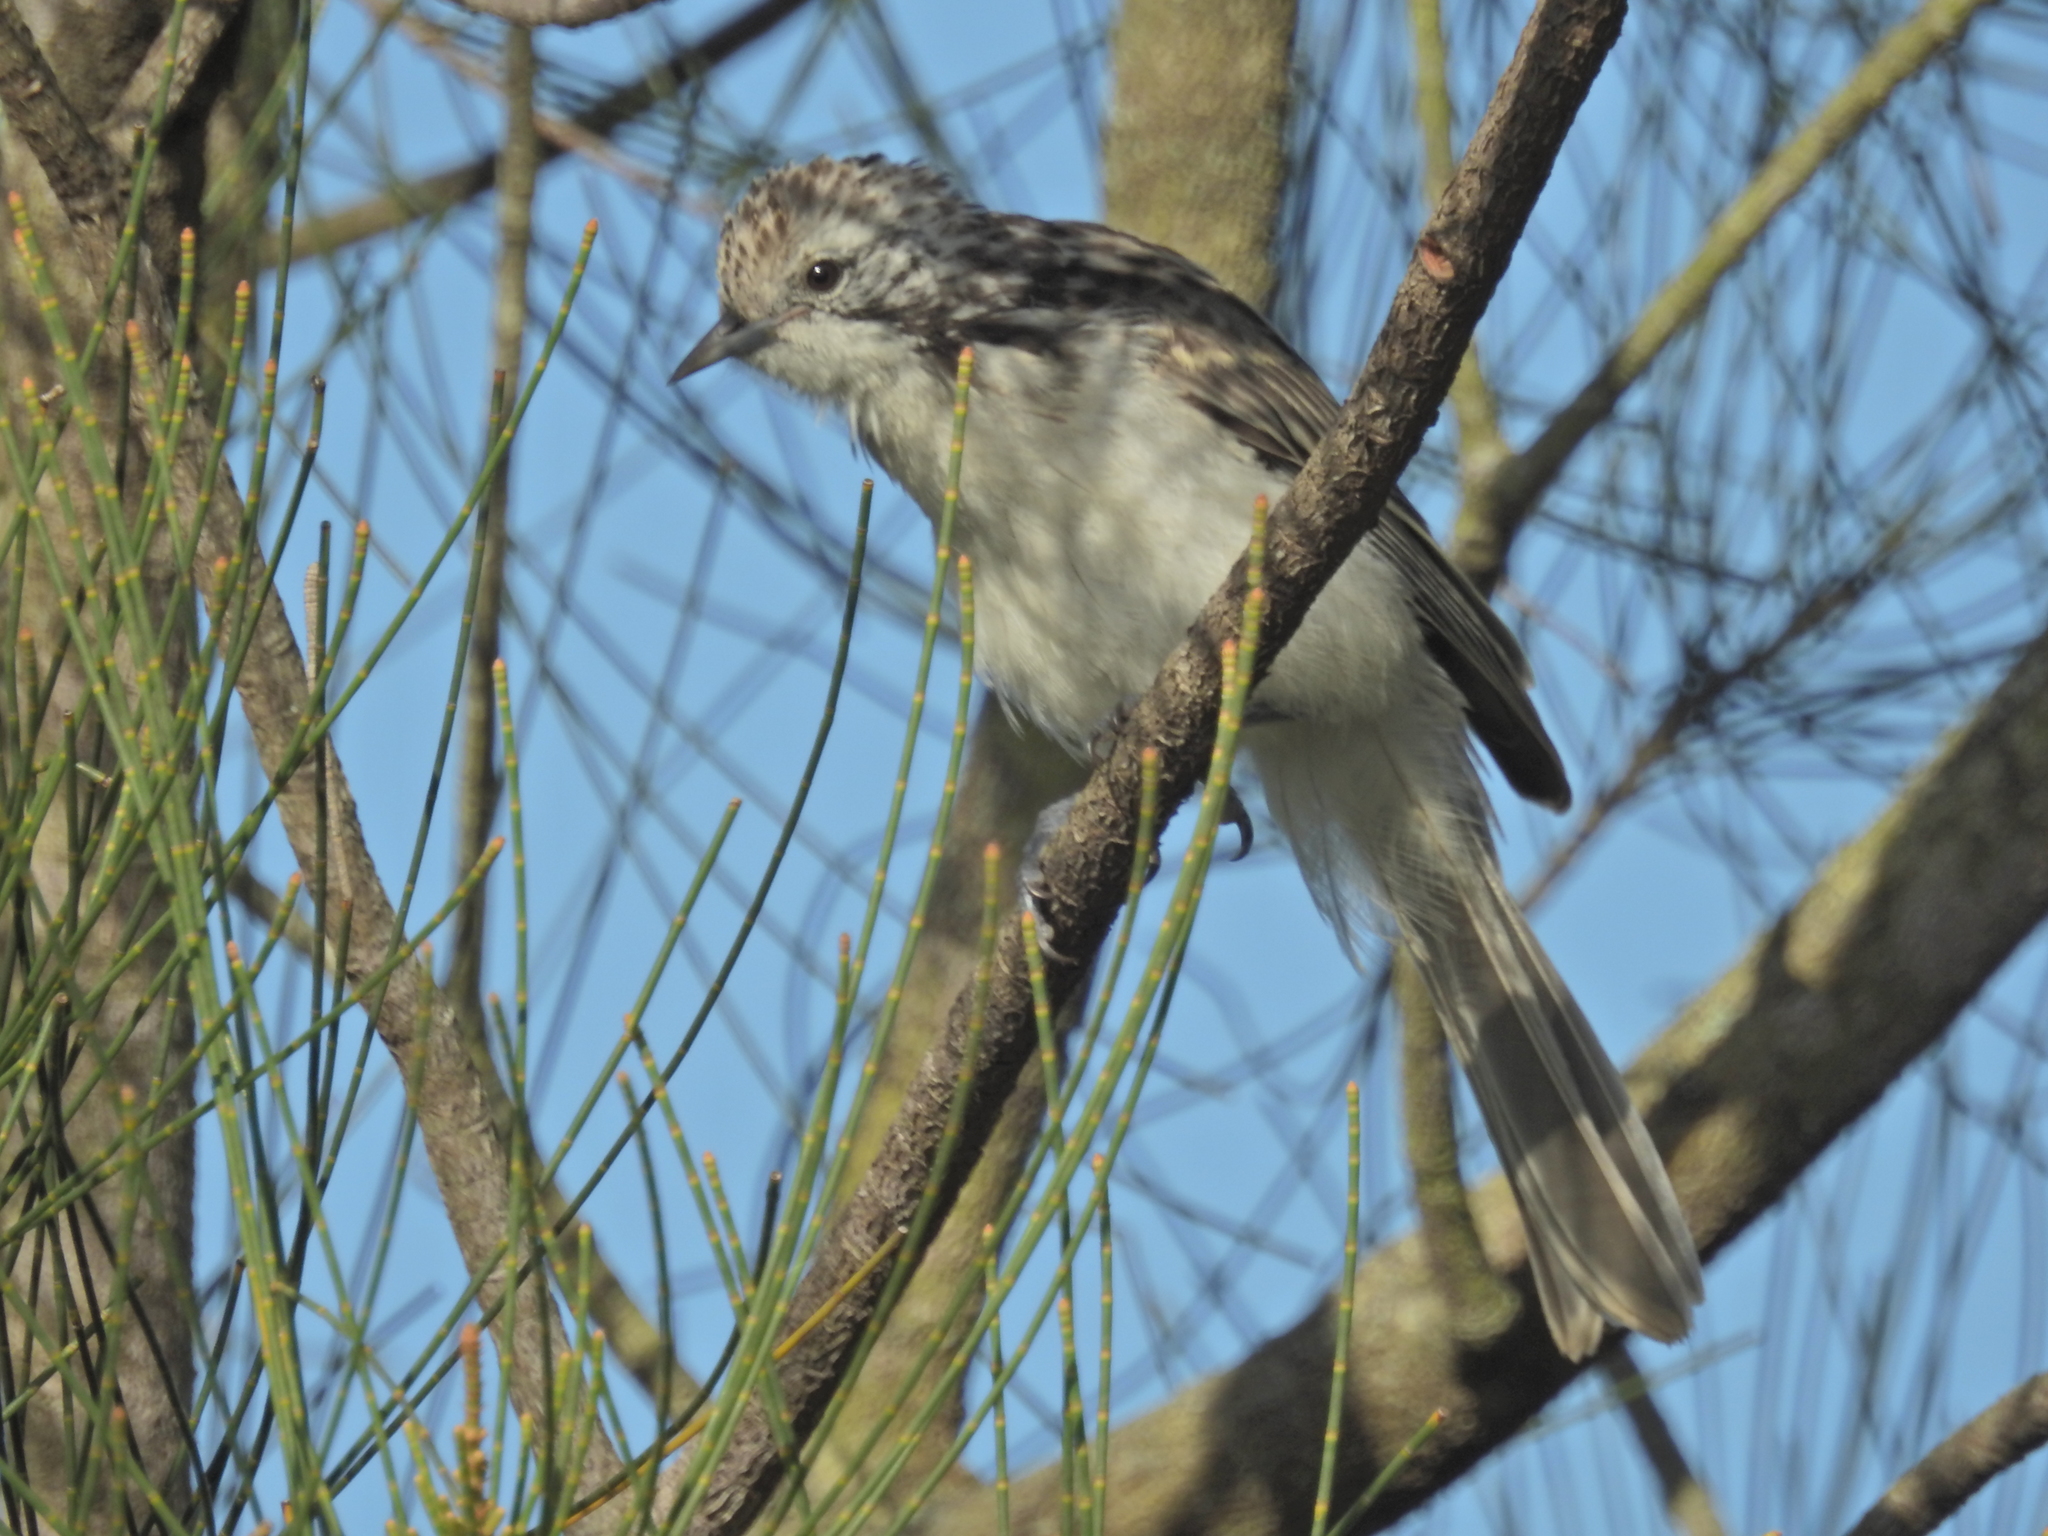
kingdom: Animalia
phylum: Chordata
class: Aves
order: Passeriformes
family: Meliphagidae
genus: Plectorhyncha
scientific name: Plectorhyncha lanceolata
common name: Striped honeyeater
